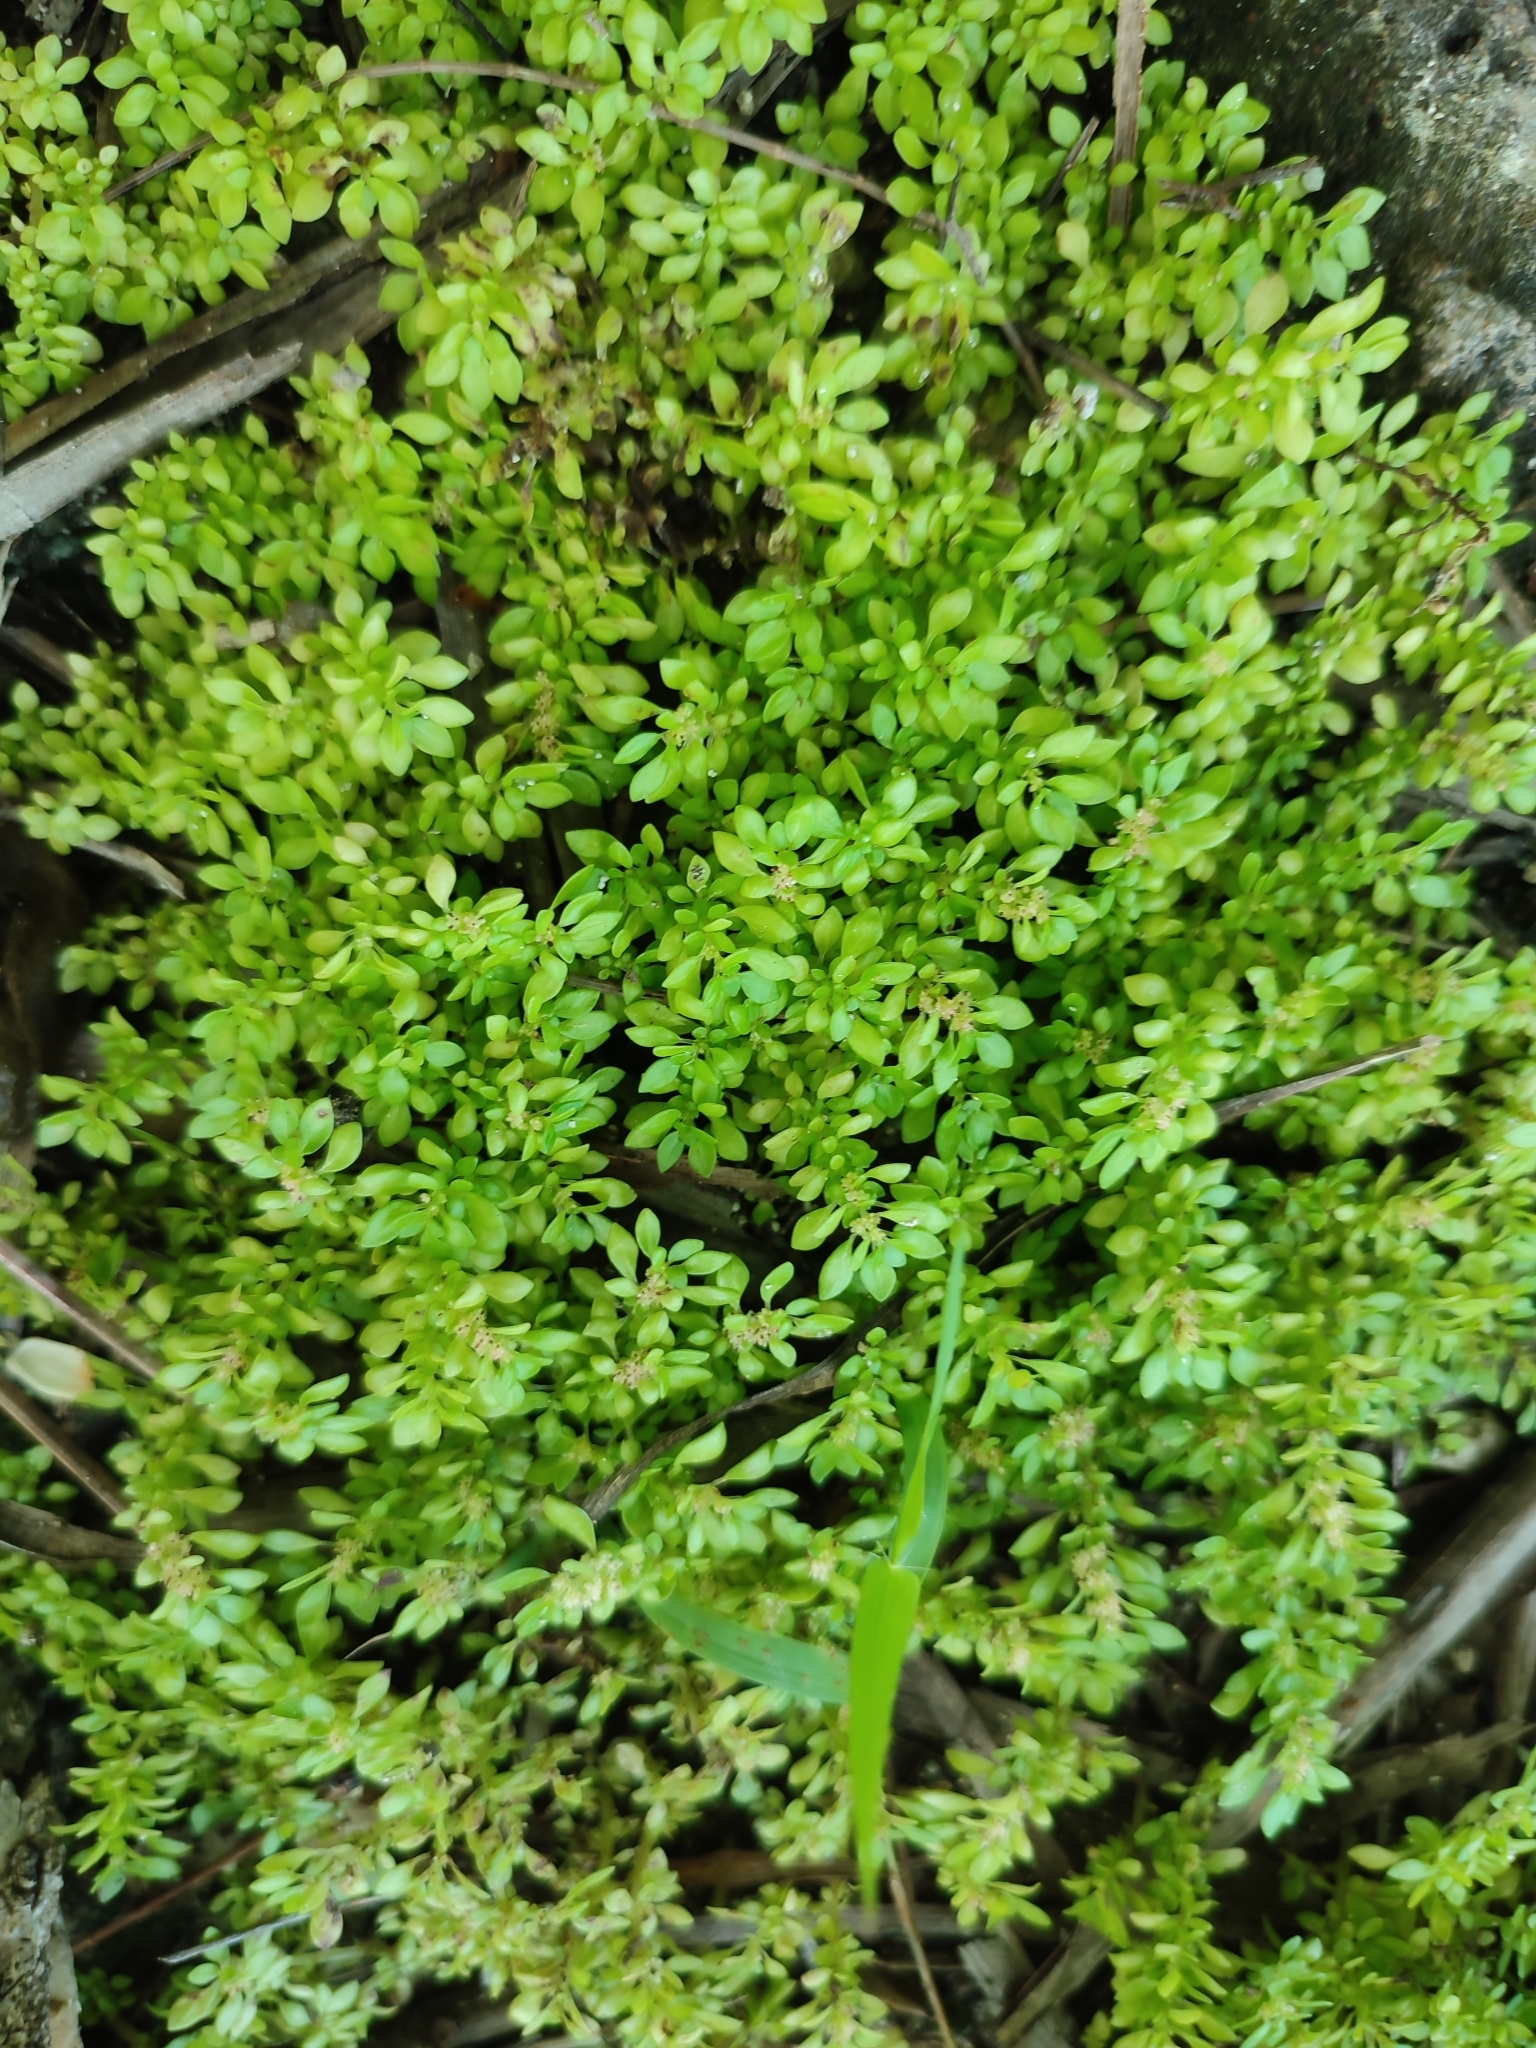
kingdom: Plantae
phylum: Tracheophyta
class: Magnoliopsida
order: Rosales
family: Urticaceae
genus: Pilea
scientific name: Pilea microphylla
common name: Artillery-plant
